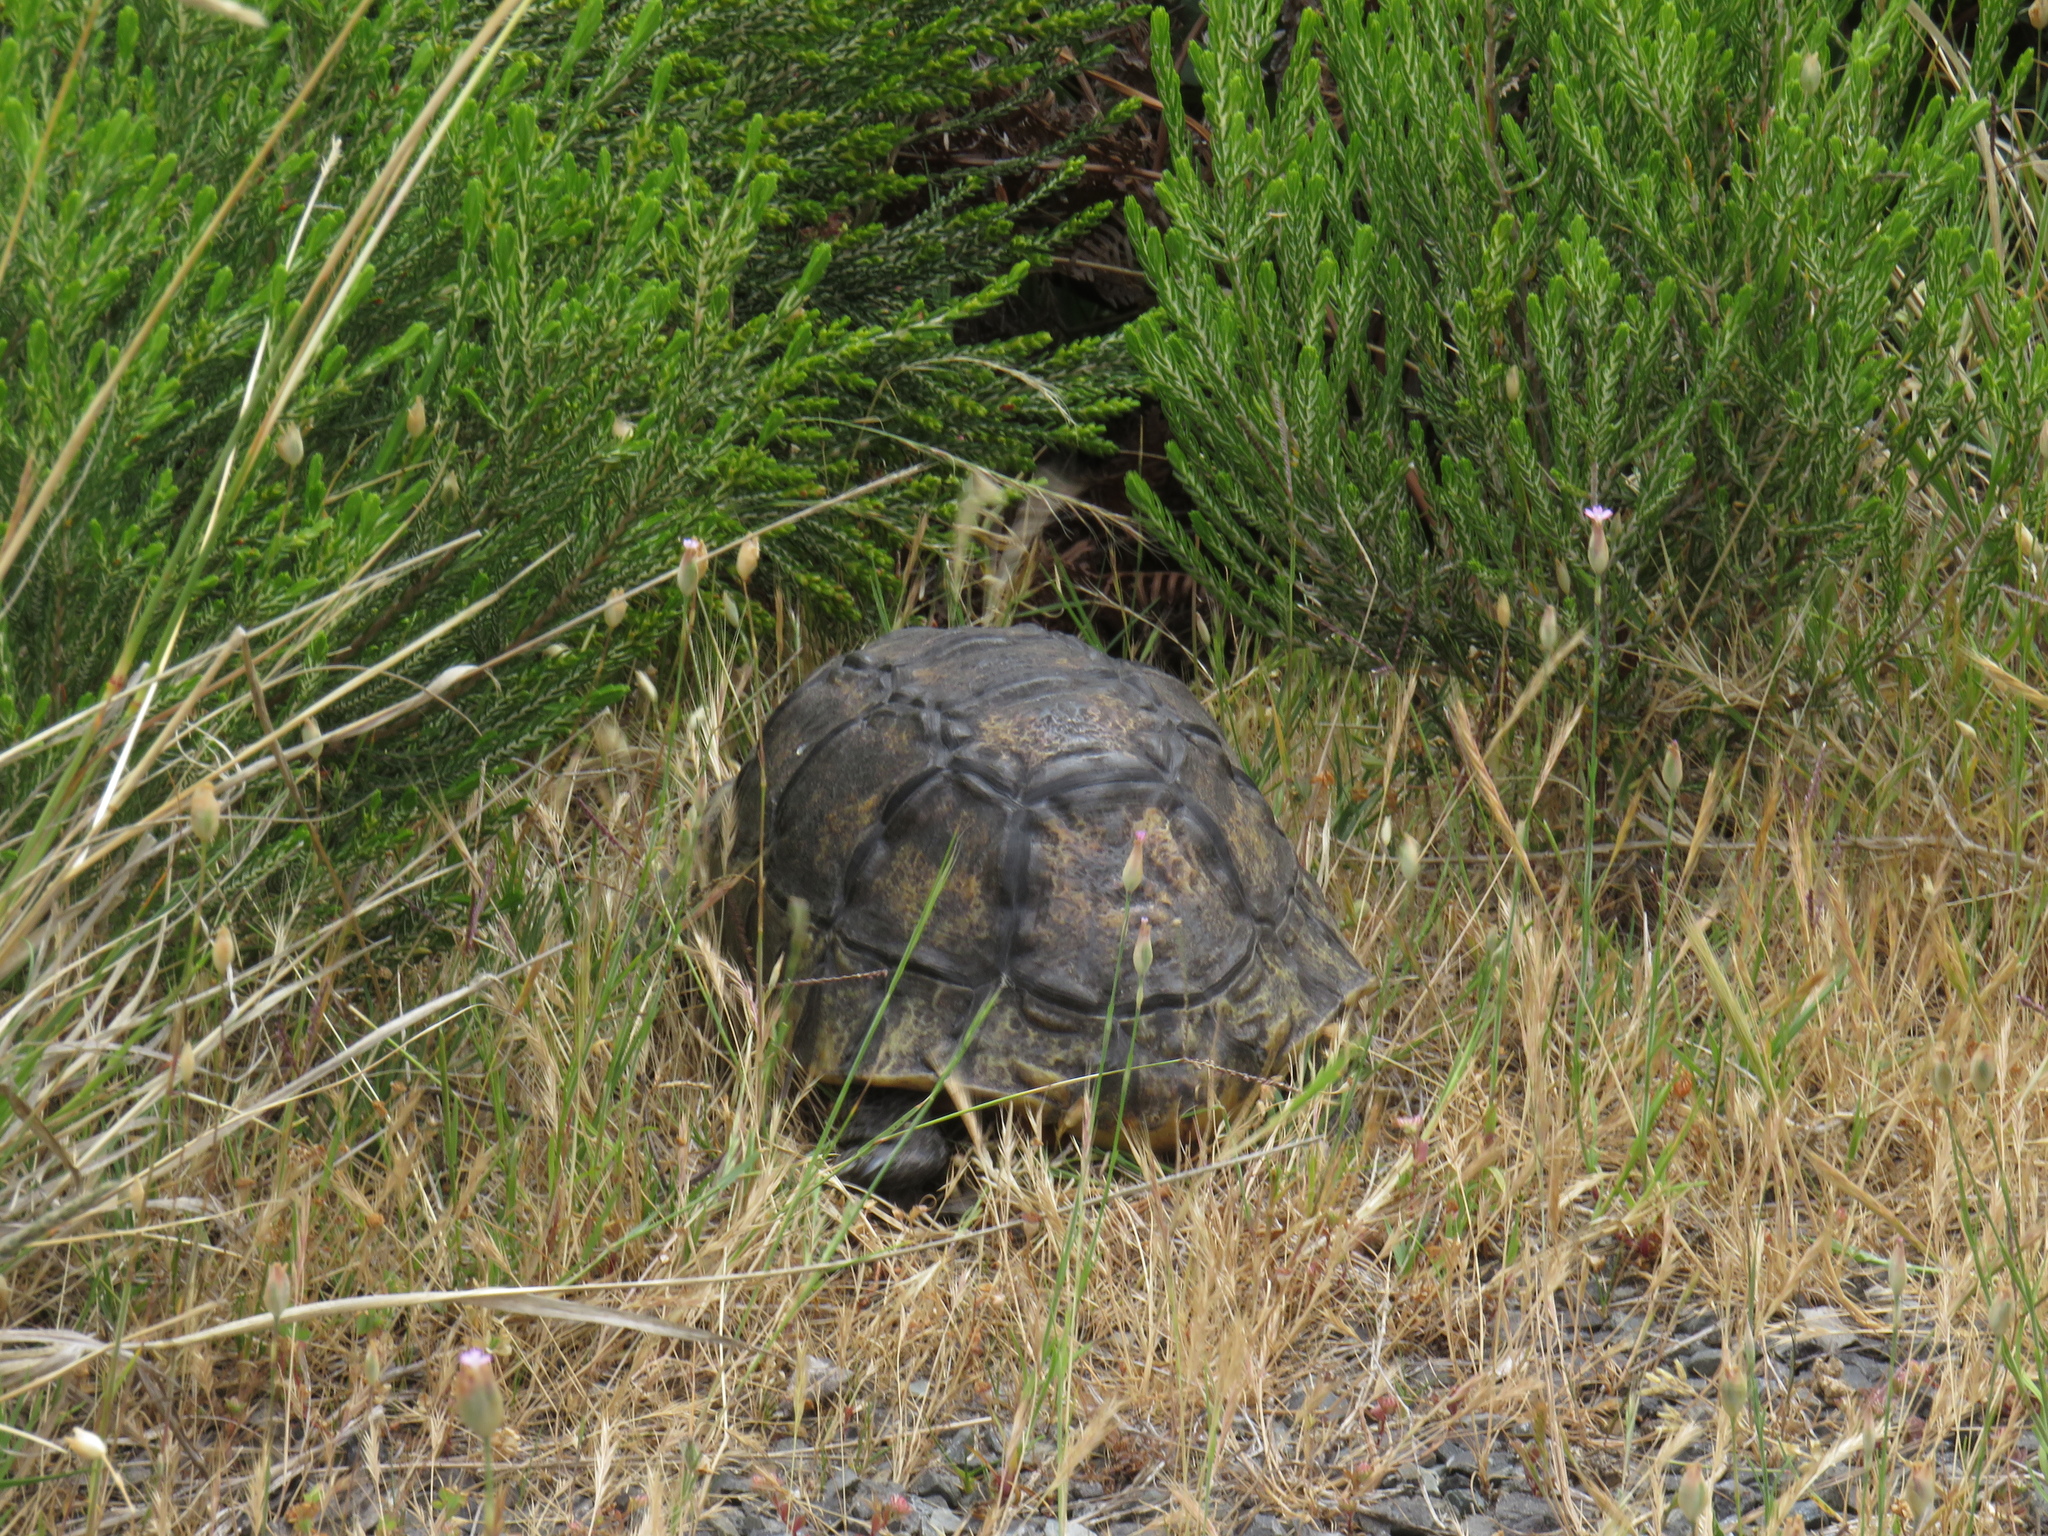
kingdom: Animalia
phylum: Chordata
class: Testudines
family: Testudinidae
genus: Chersina
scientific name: Chersina angulata
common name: South african bowsprit tortoise
